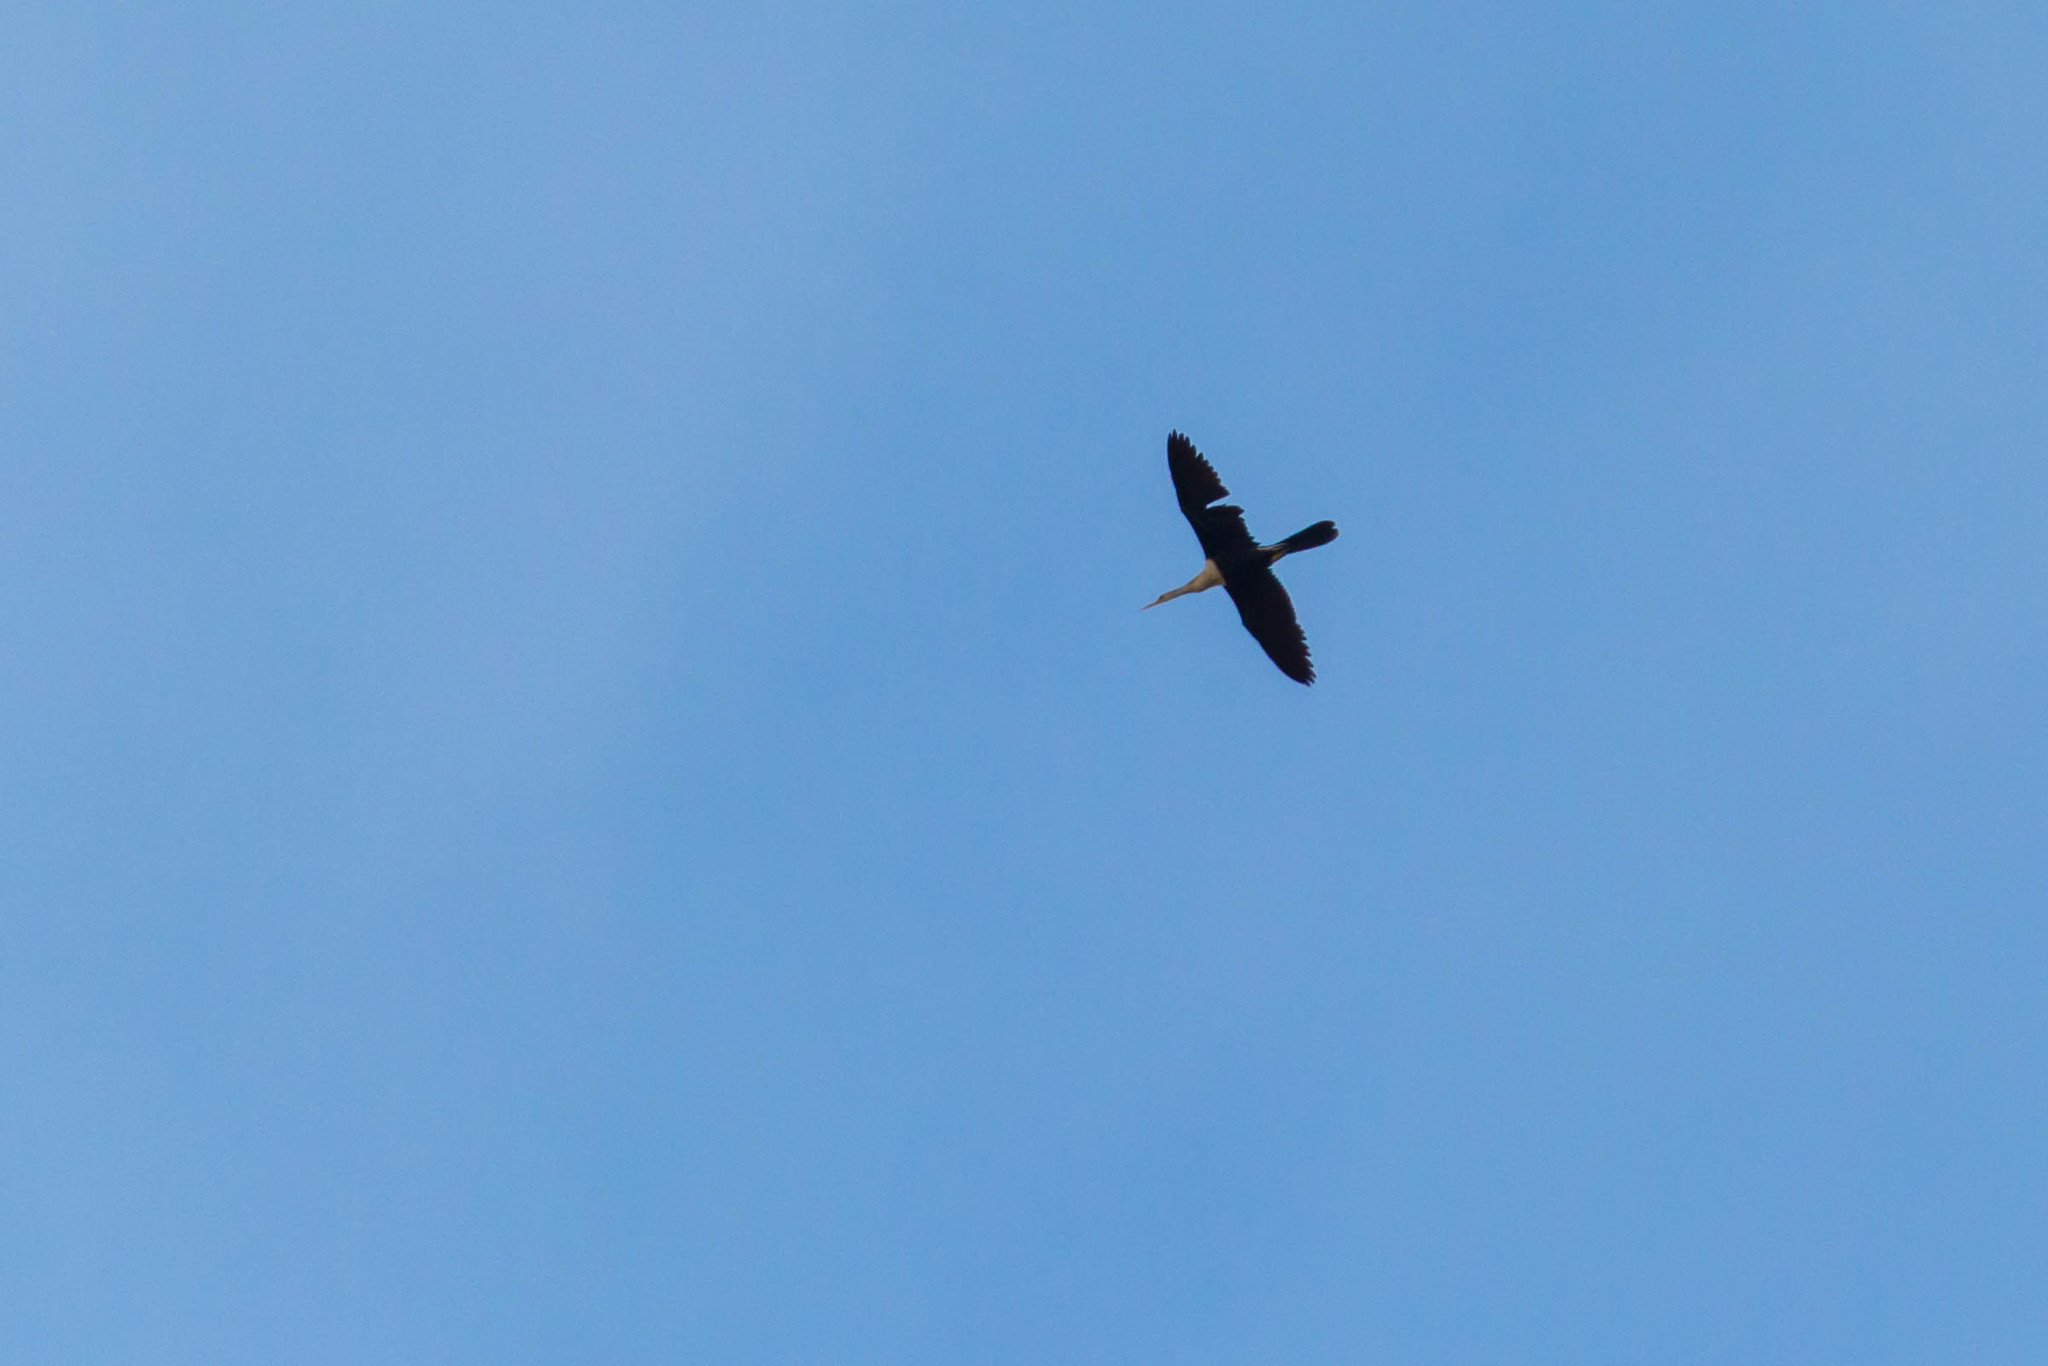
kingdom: Animalia
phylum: Chordata
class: Aves
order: Suliformes
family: Anhingidae
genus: Anhinga
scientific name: Anhinga anhinga
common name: Anhinga
